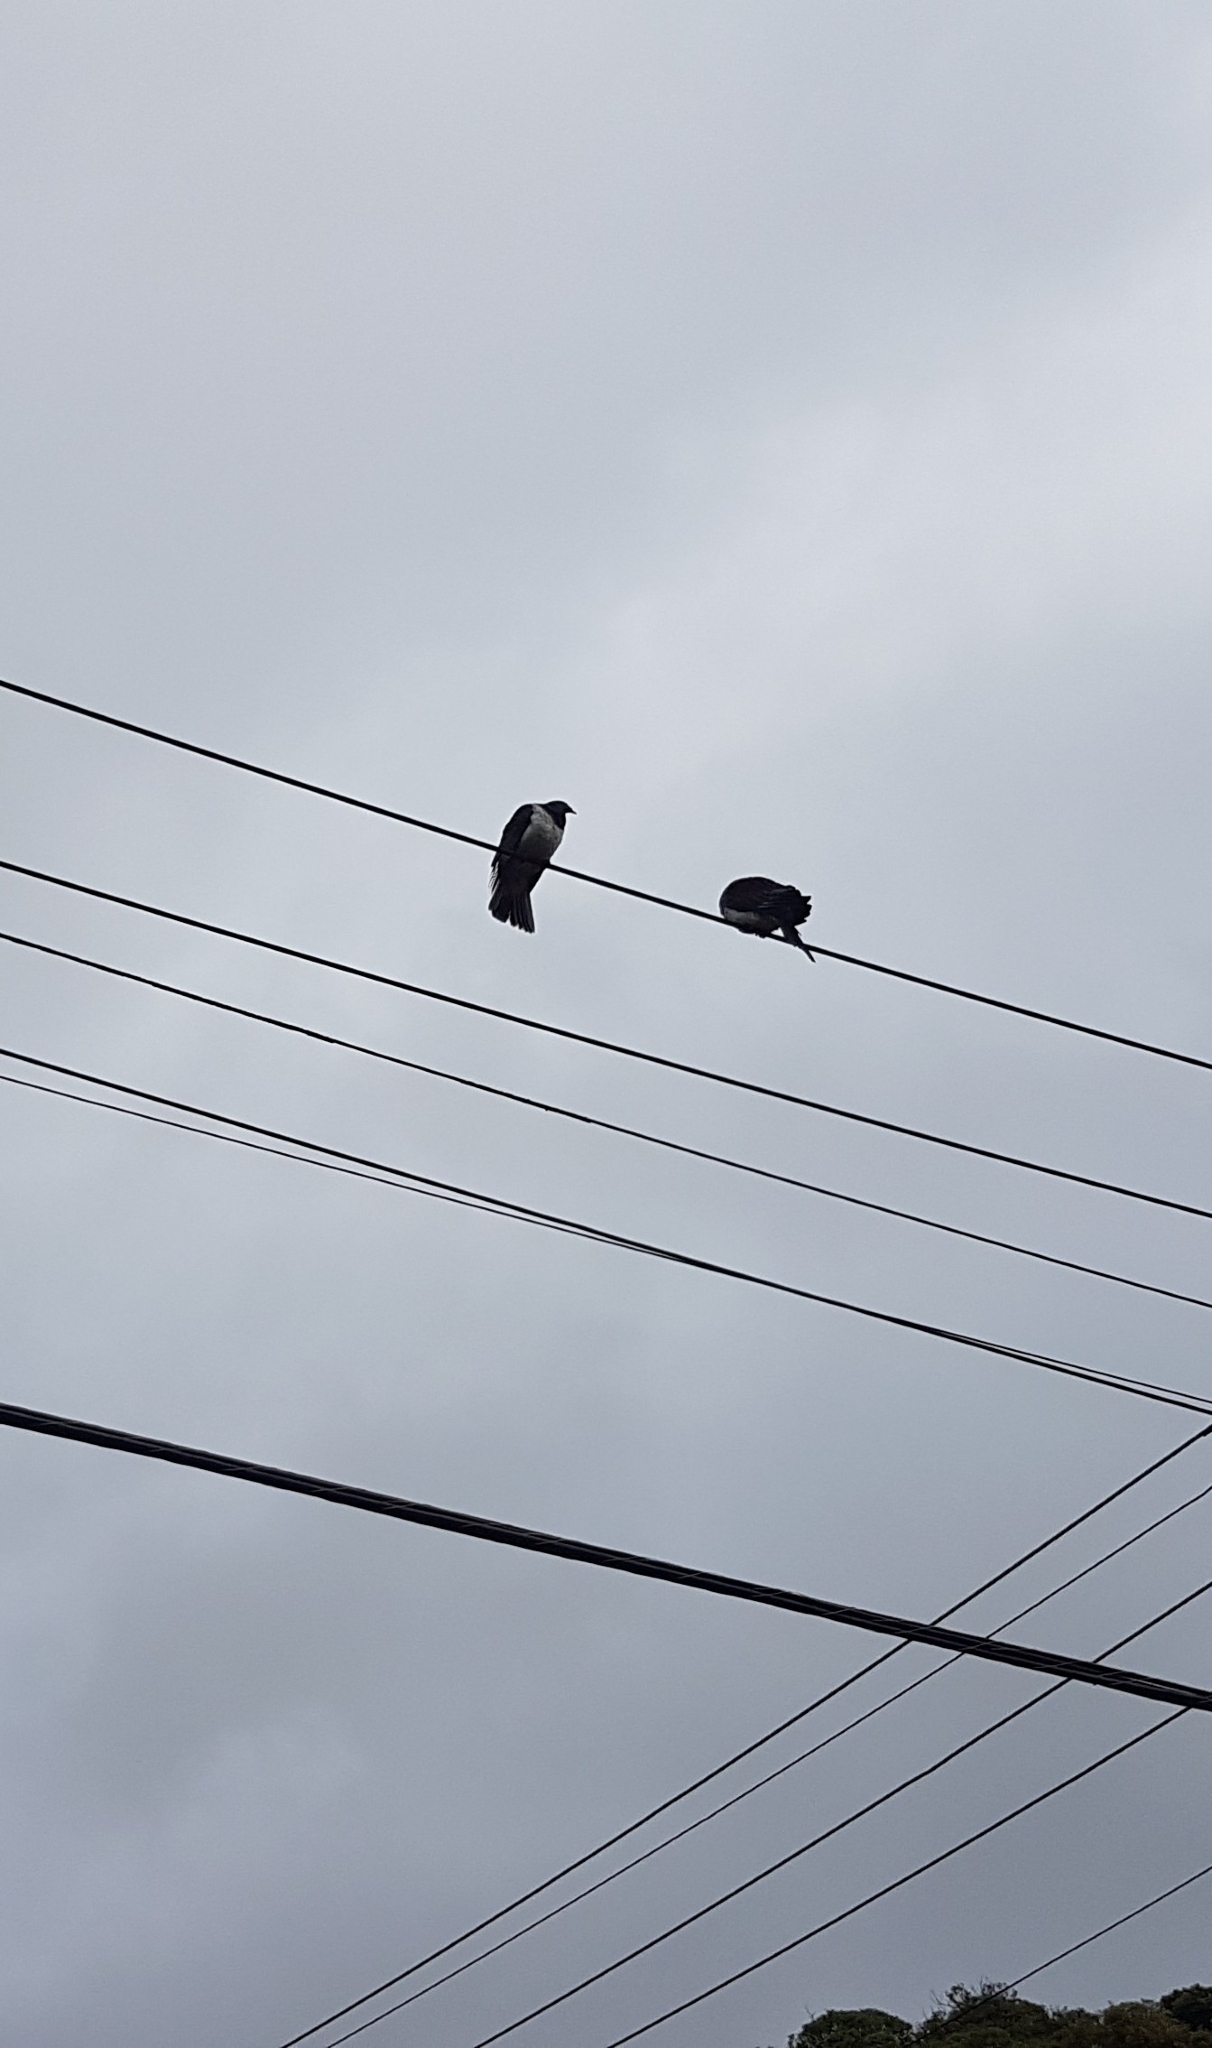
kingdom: Animalia
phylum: Chordata
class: Aves
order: Columbiformes
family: Columbidae
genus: Hemiphaga
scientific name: Hemiphaga novaeseelandiae
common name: New zealand pigeon
